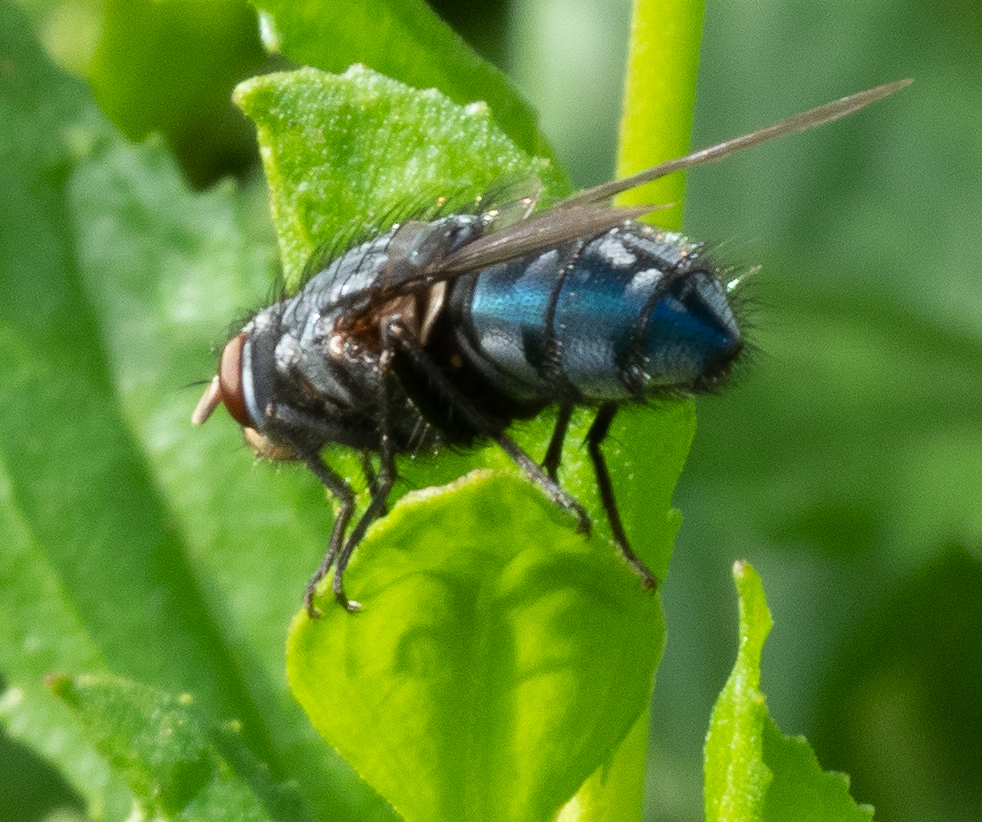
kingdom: Animalia
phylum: Arthropoda
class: Insecta
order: Diptera
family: Calliphoridae
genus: Calliphora
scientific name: Calliphora vicina
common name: Common blow flie
